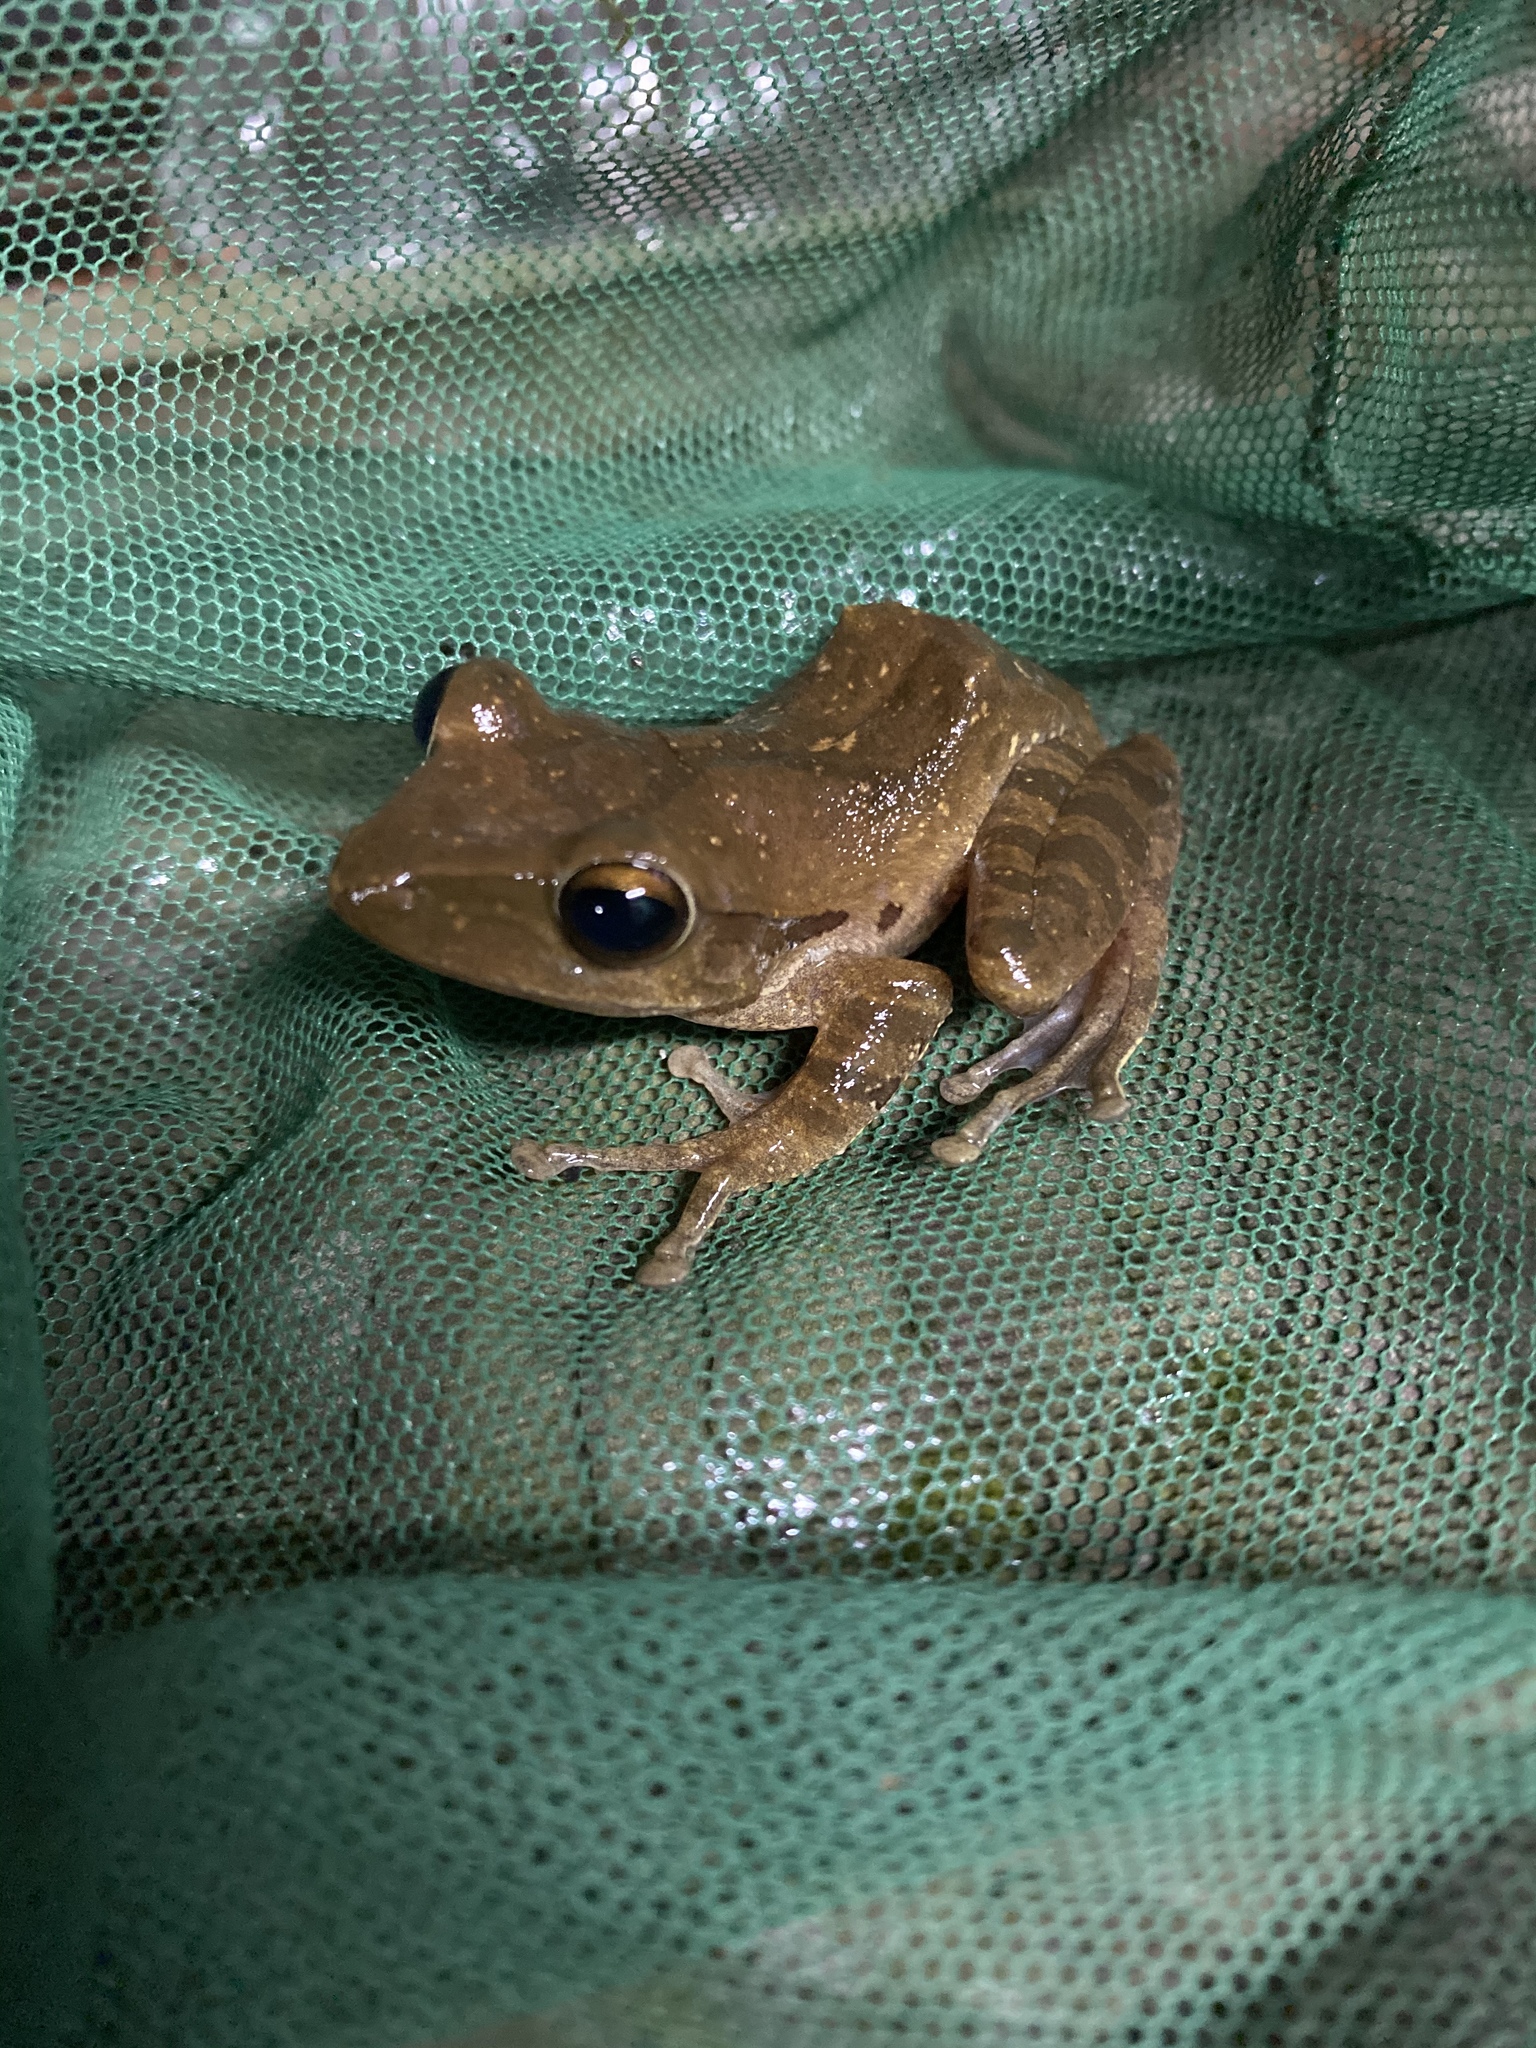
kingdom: Animalia
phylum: Chordata
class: Amphibia
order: Anura
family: Rhacophoridae
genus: Polypedates
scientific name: Polypedates megacephalus
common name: Hong kong whipping frog
